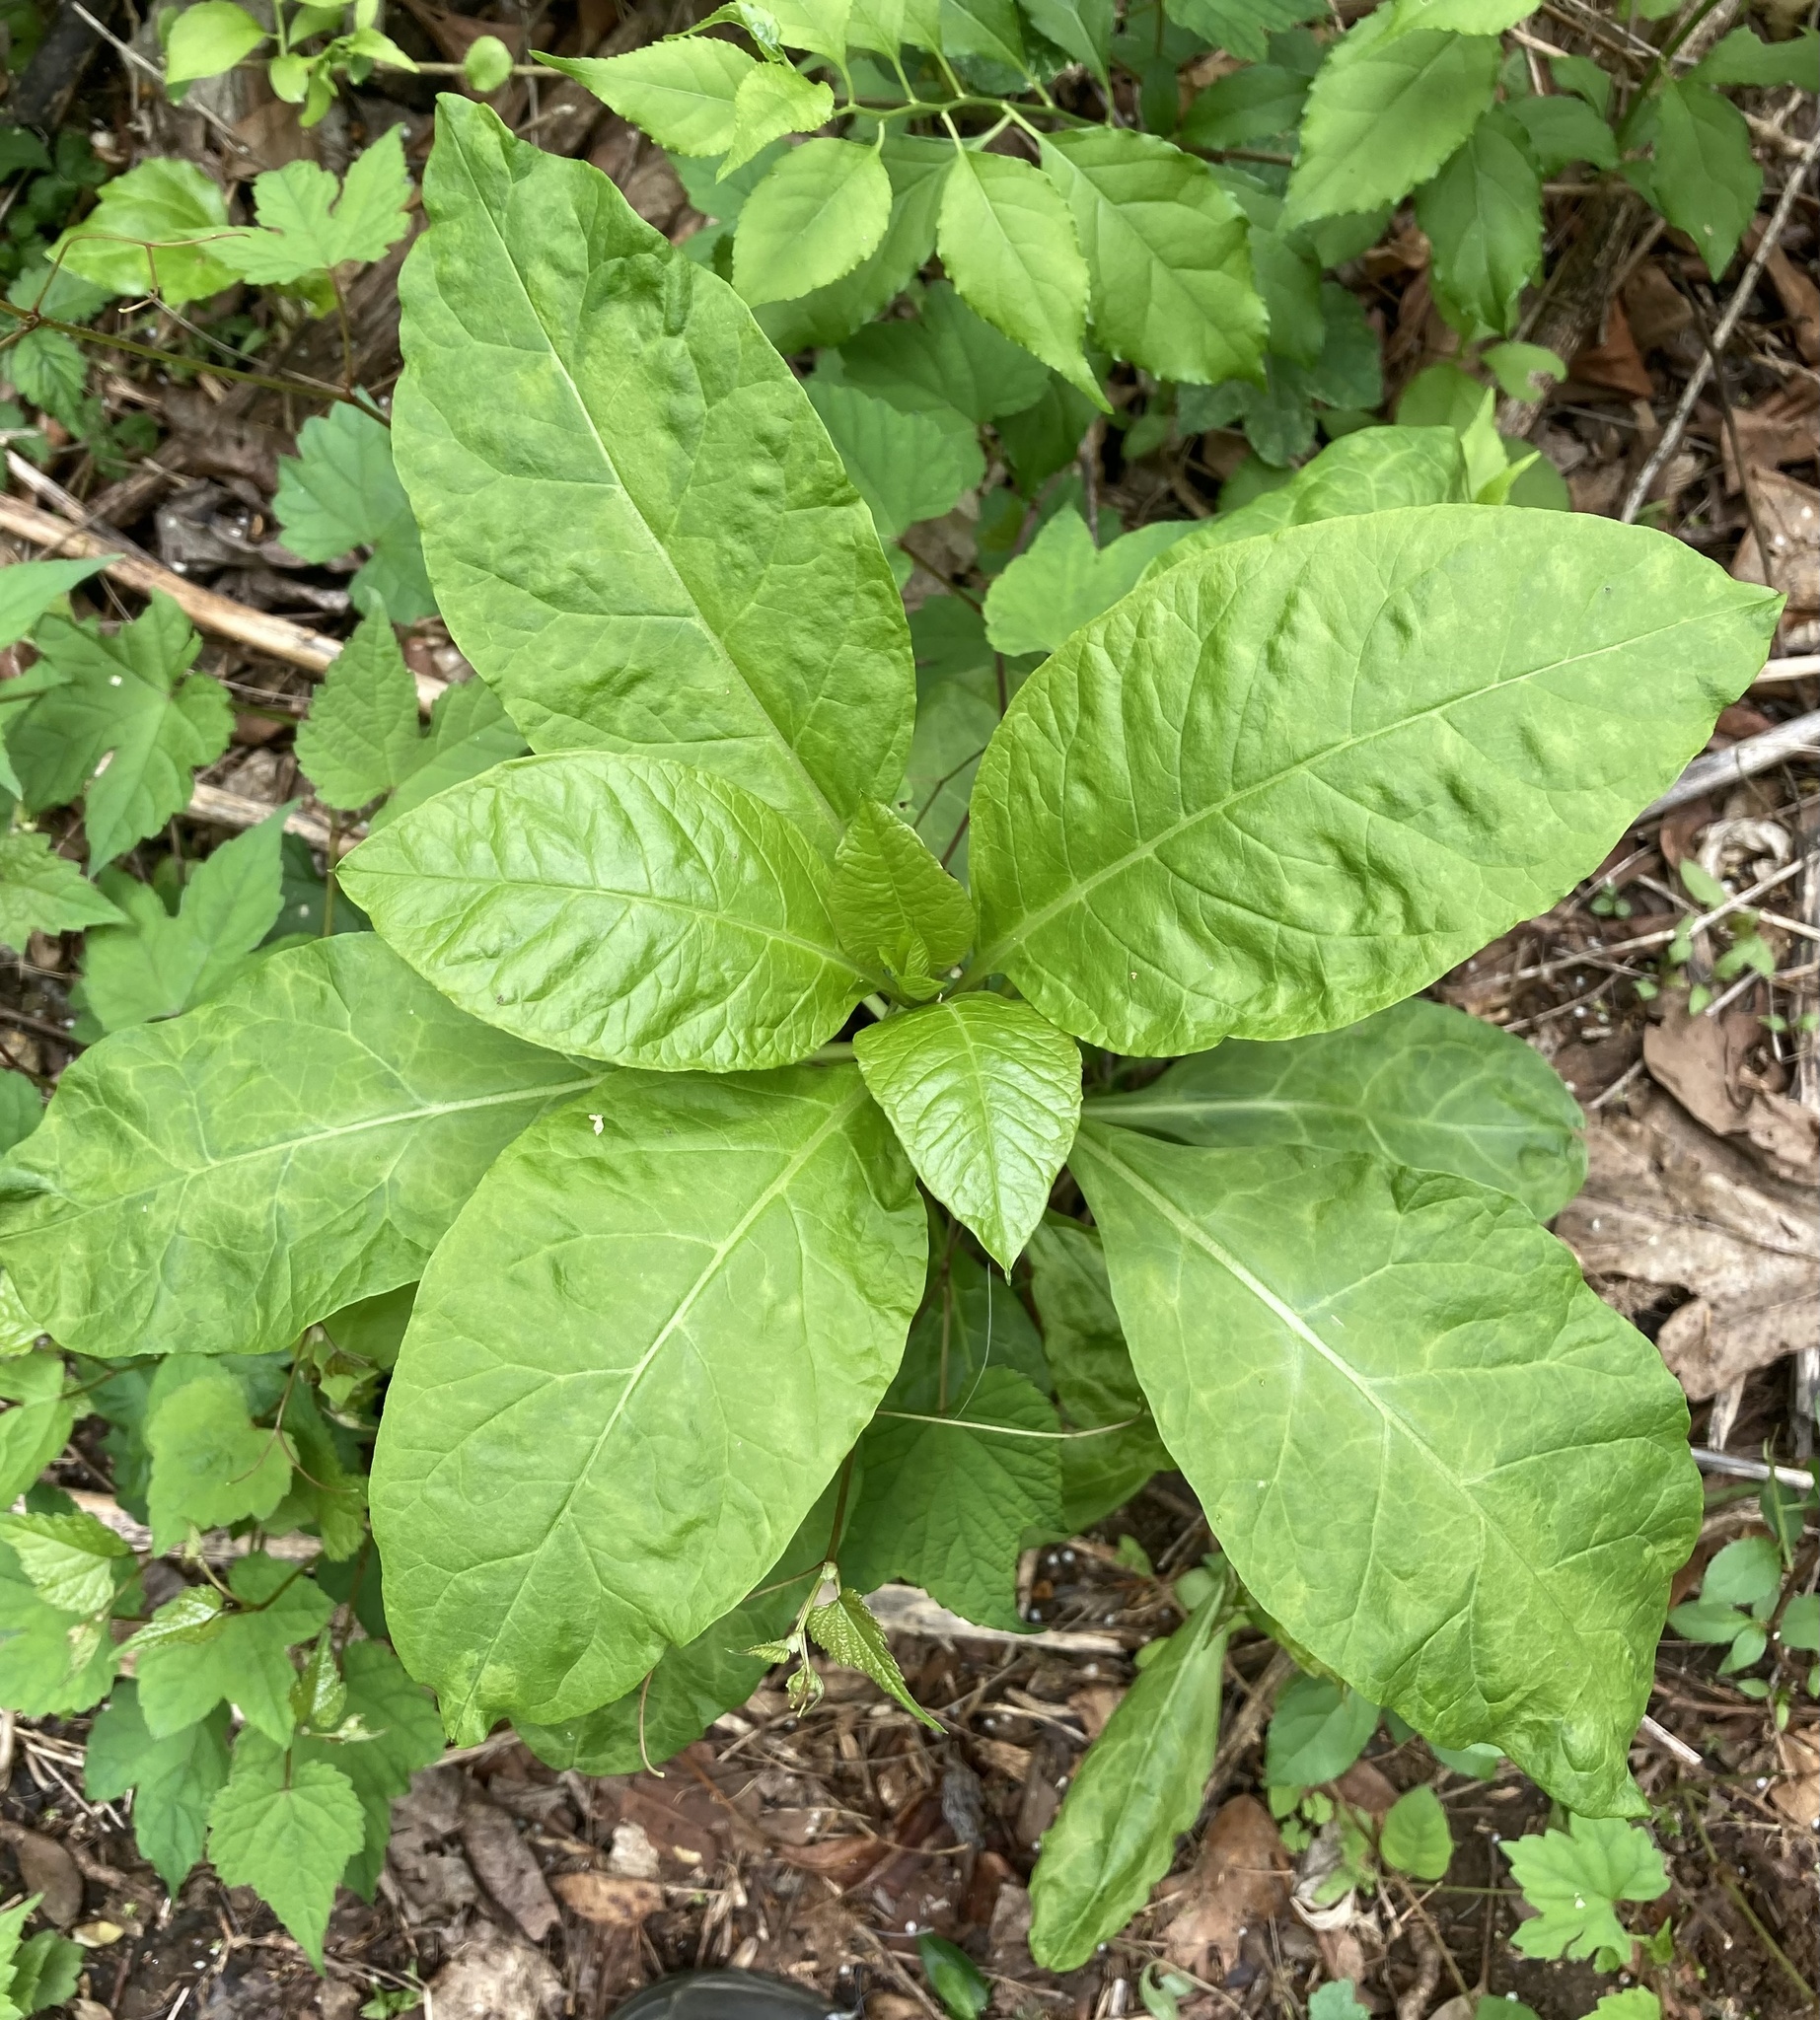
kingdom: Plantae
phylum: Tracheophyta
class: Magnoliopsida
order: Caryophyllales
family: Phytolaccaceae
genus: Phytolacca
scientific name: Phytolacca americana
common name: American pokeweed
